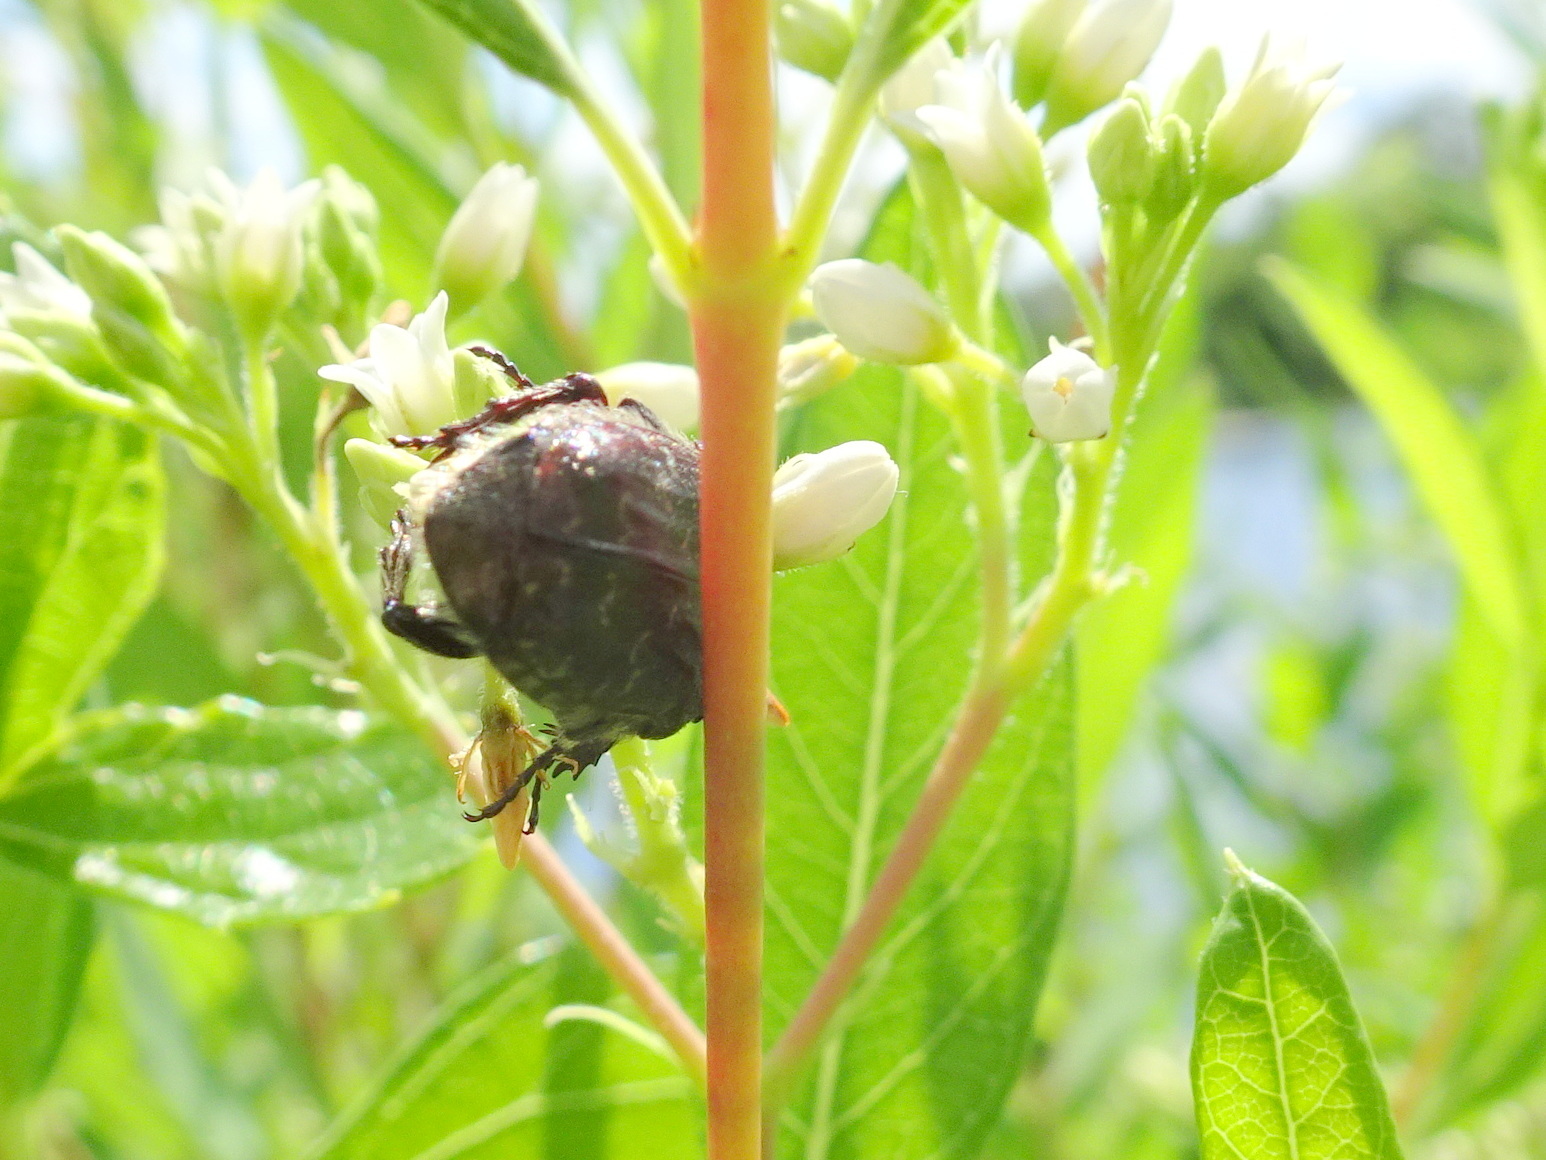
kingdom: Animalia
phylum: Arthropoda
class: Insecta
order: Coleoptera
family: Scarabaeidae
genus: Euphoria
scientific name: Euphoria sepulcralis
